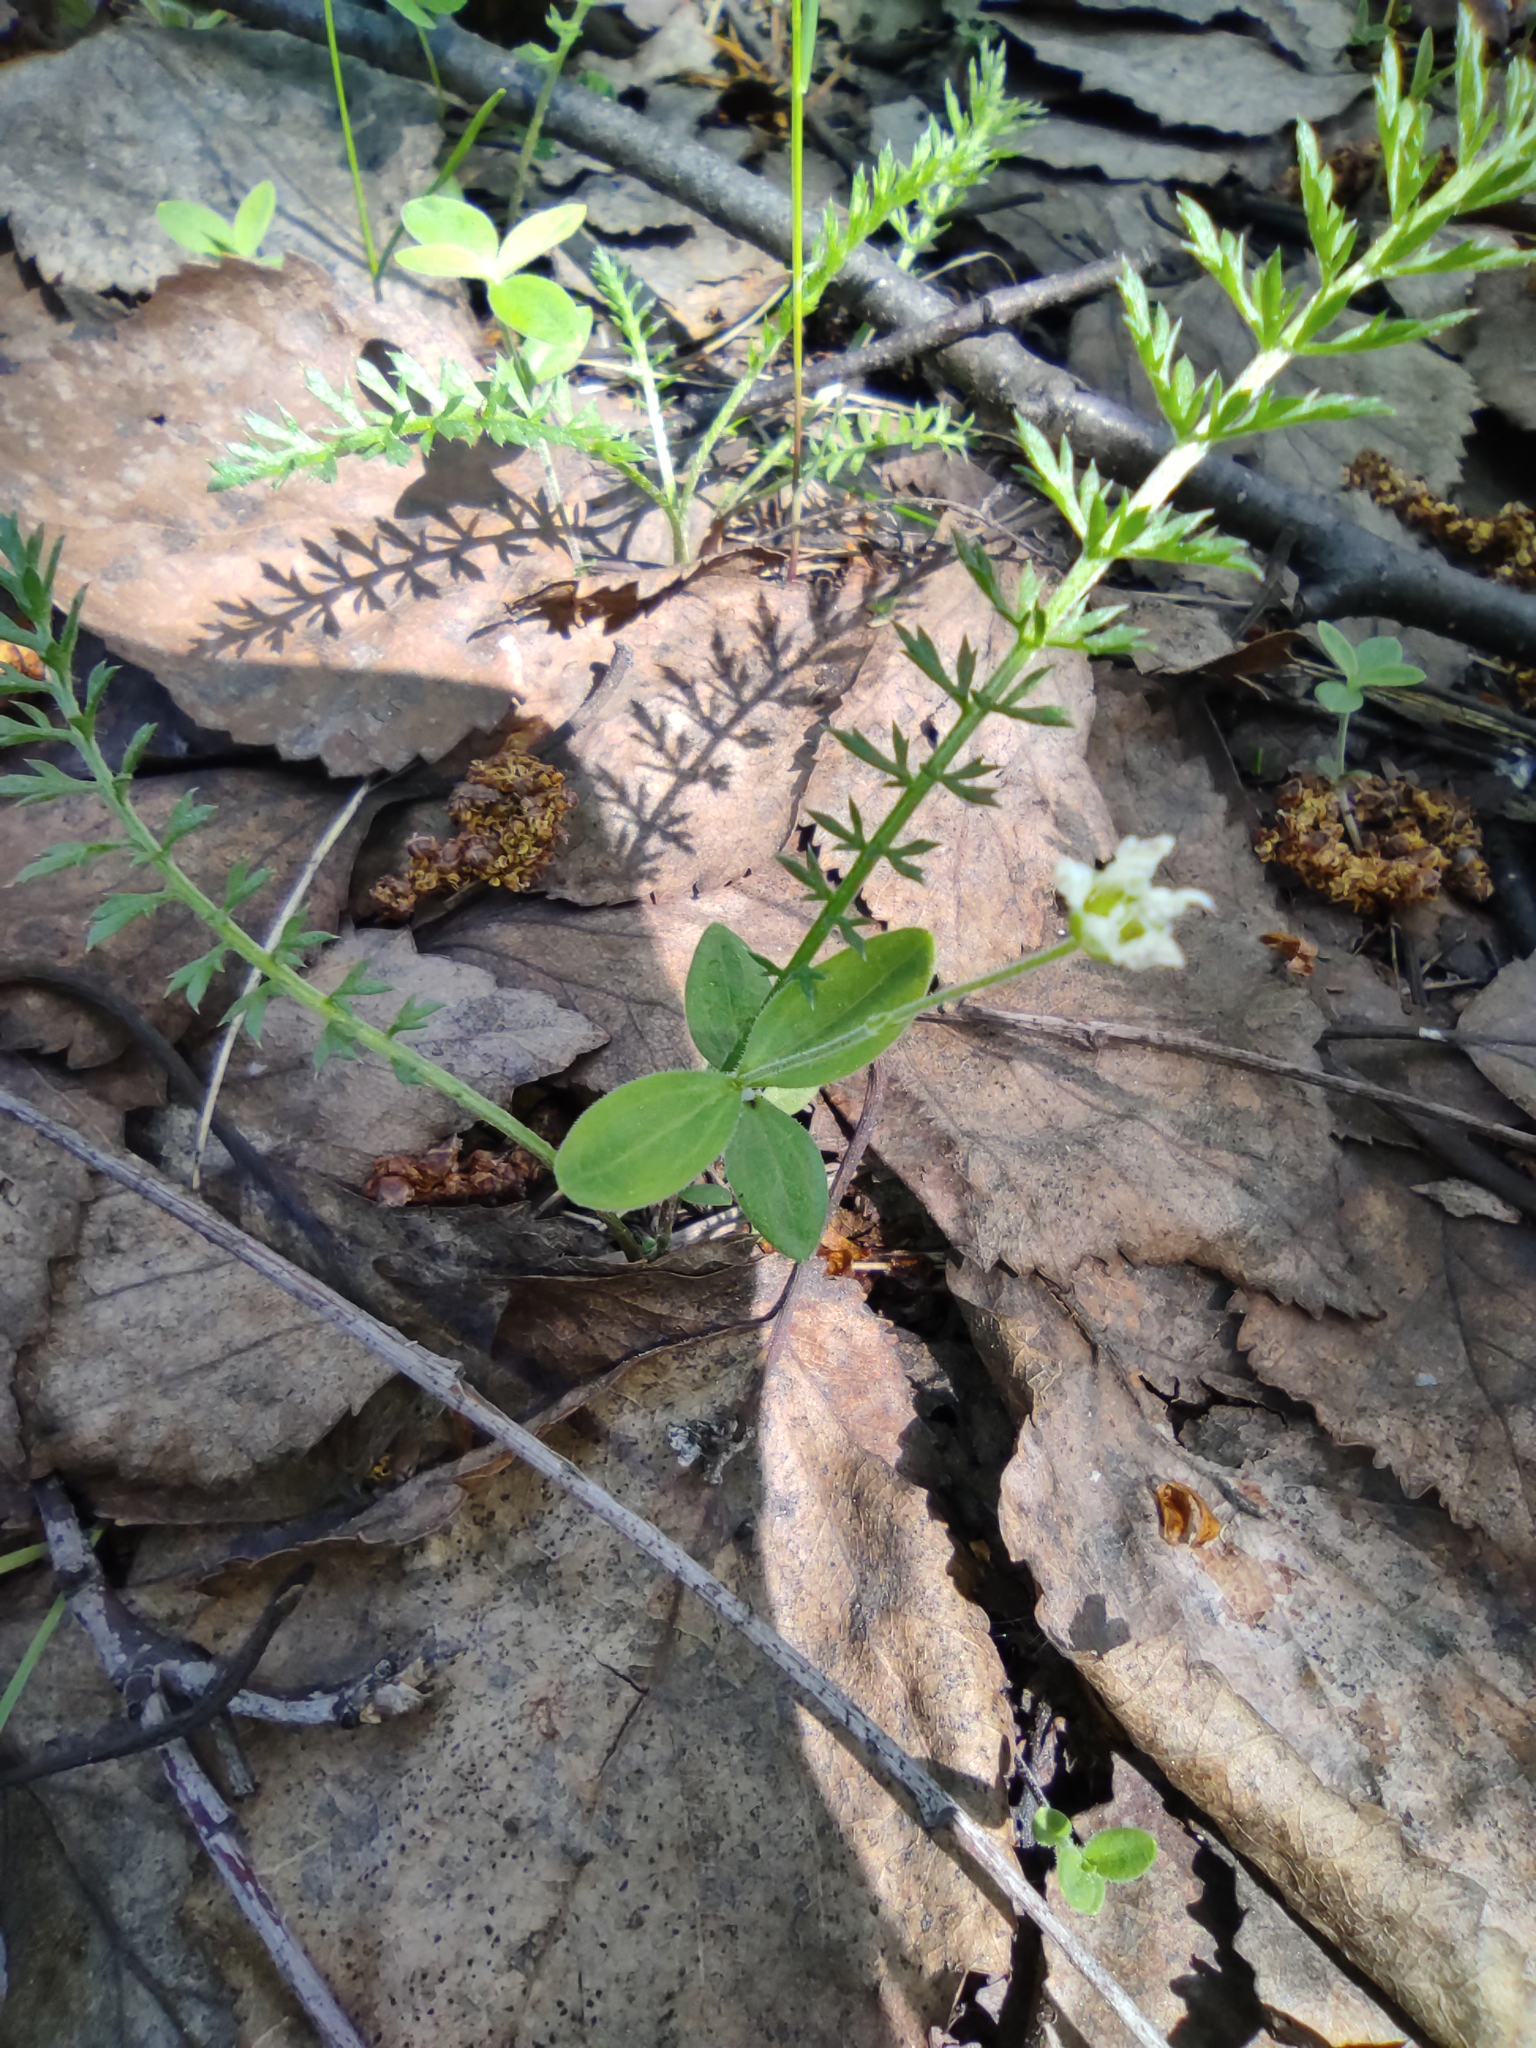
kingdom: Plantae
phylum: Tracheophyta
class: Magnoliopsida
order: Caryophyllales
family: Caryophyllaceae
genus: Moehringia
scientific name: Moehringia lateriflora
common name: Blunt-leaved sandwort
